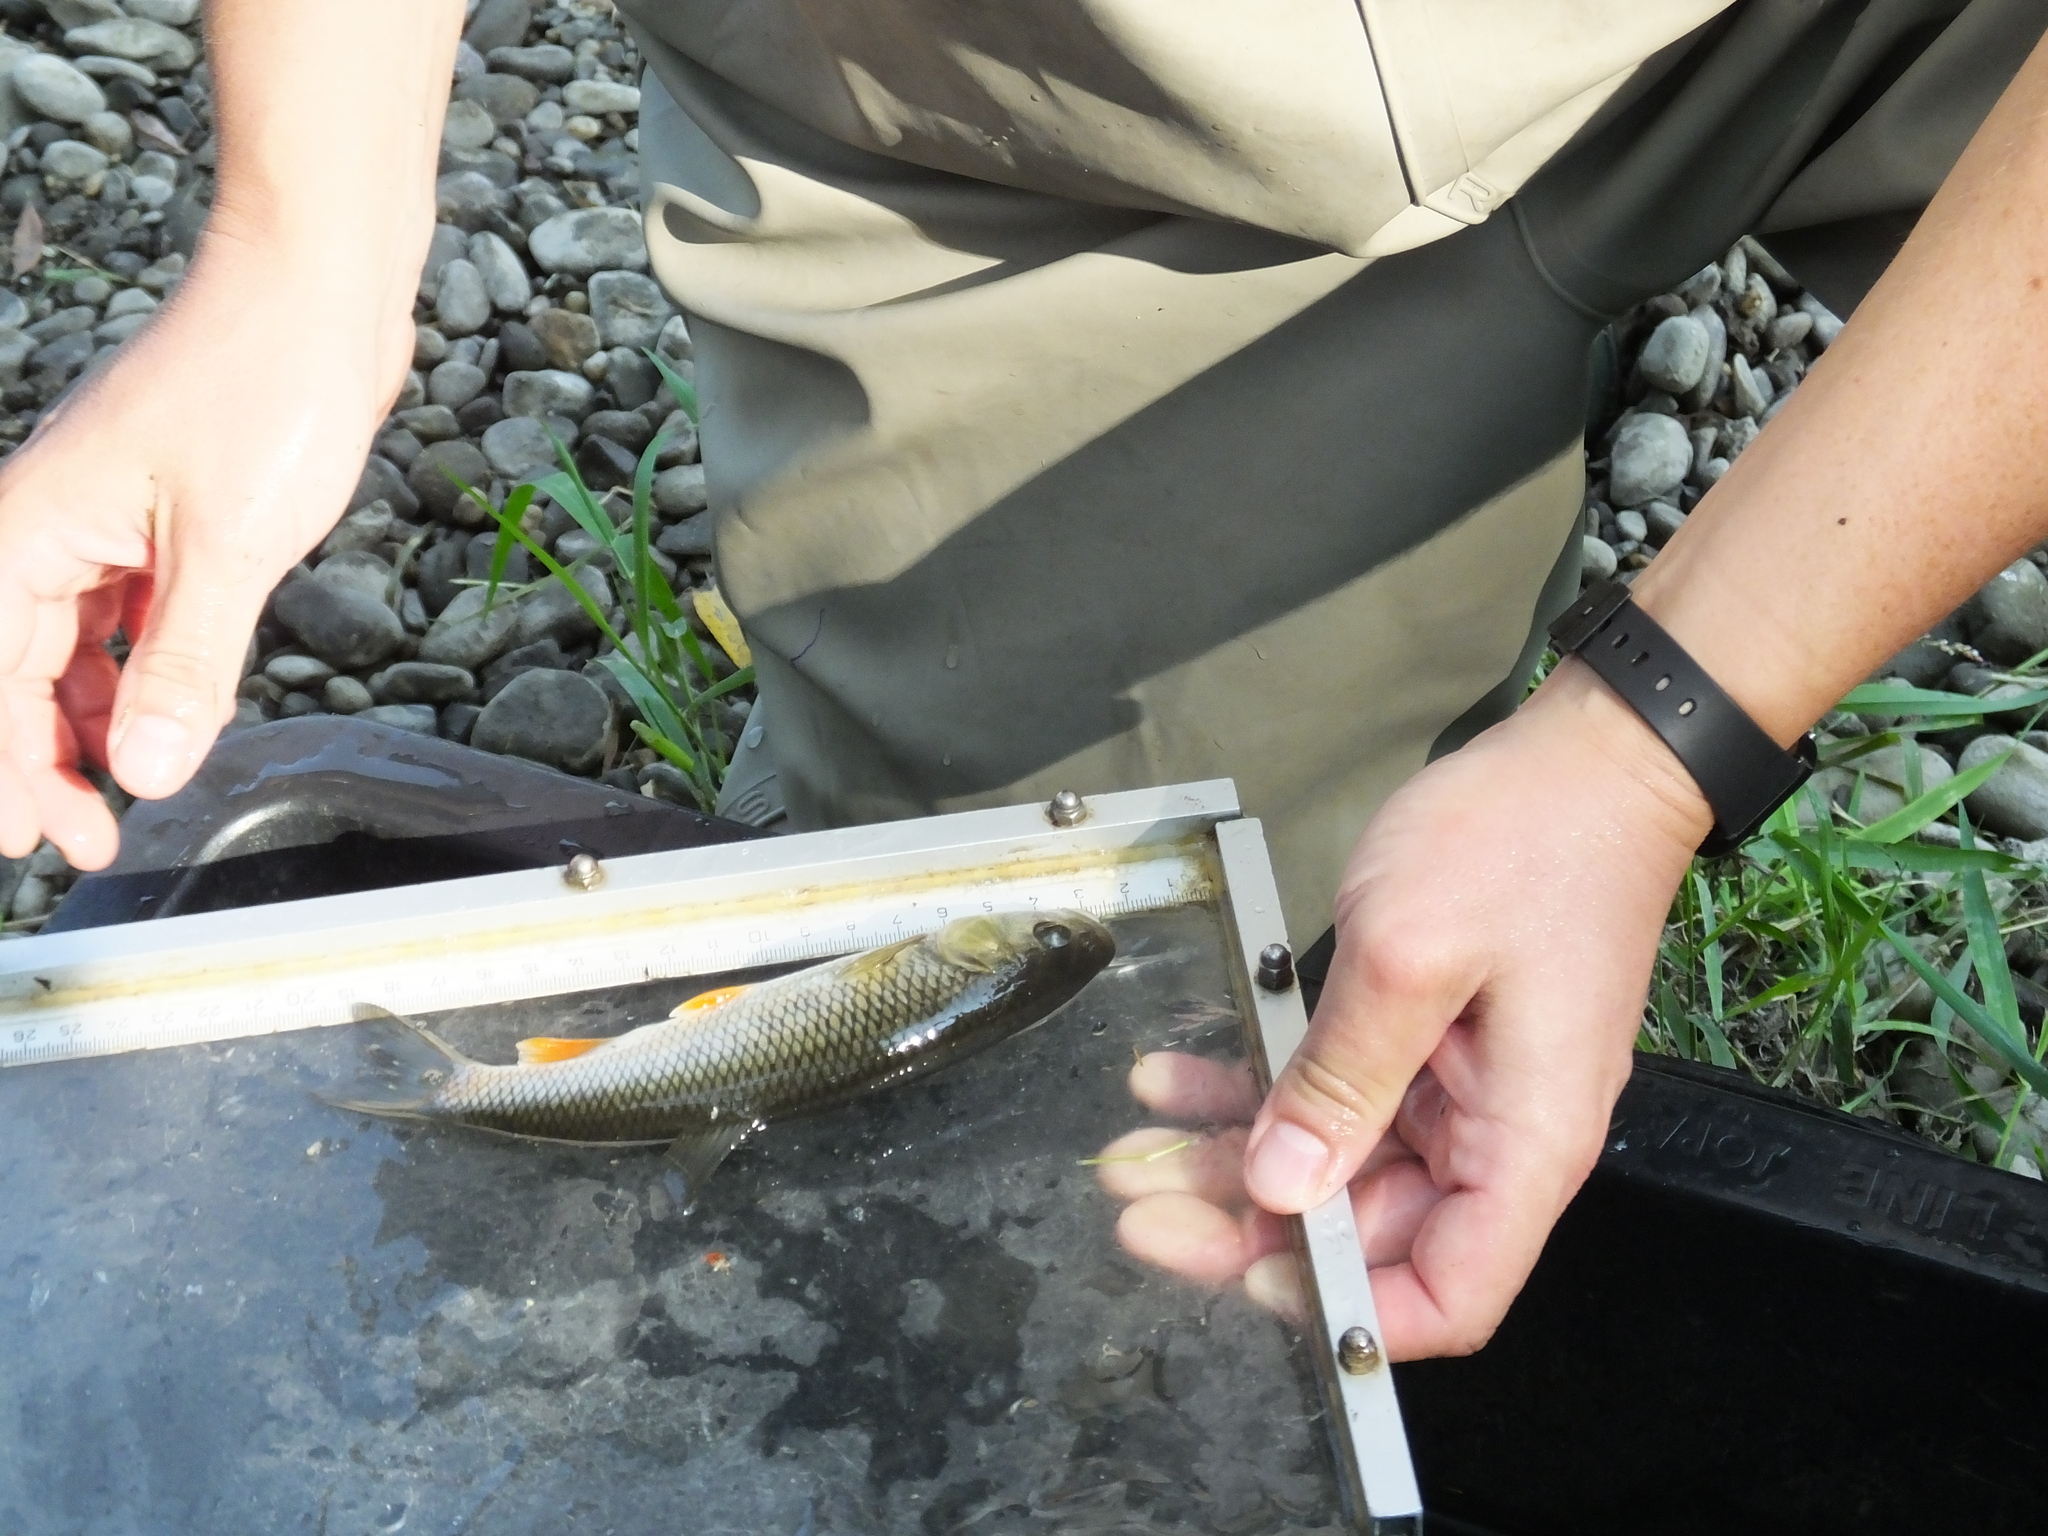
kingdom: Animalia
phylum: Chordata
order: Cypriniformes
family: Cyprinidae
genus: Squalius
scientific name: Squalius cephalus
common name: Chub
